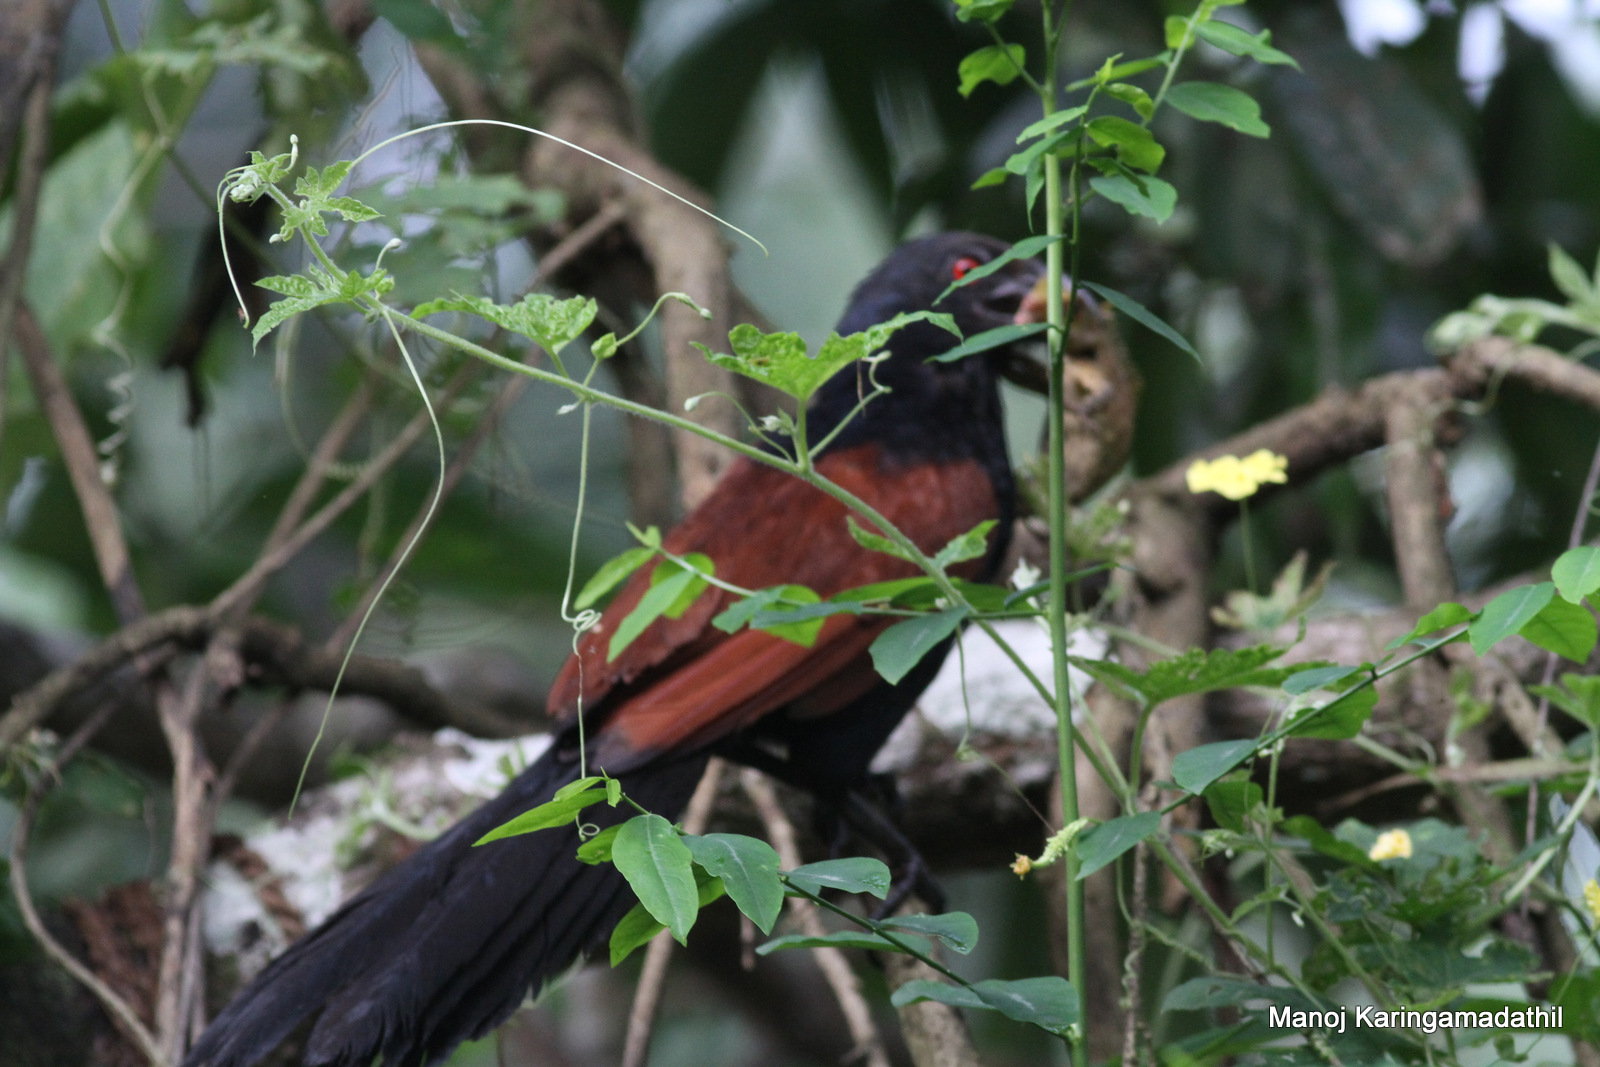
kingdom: Animalia
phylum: Chordata
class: Aves
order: Cuculiformes
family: Cuculidae
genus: Centropus
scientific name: Centropus sinensis
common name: Greater coucal
